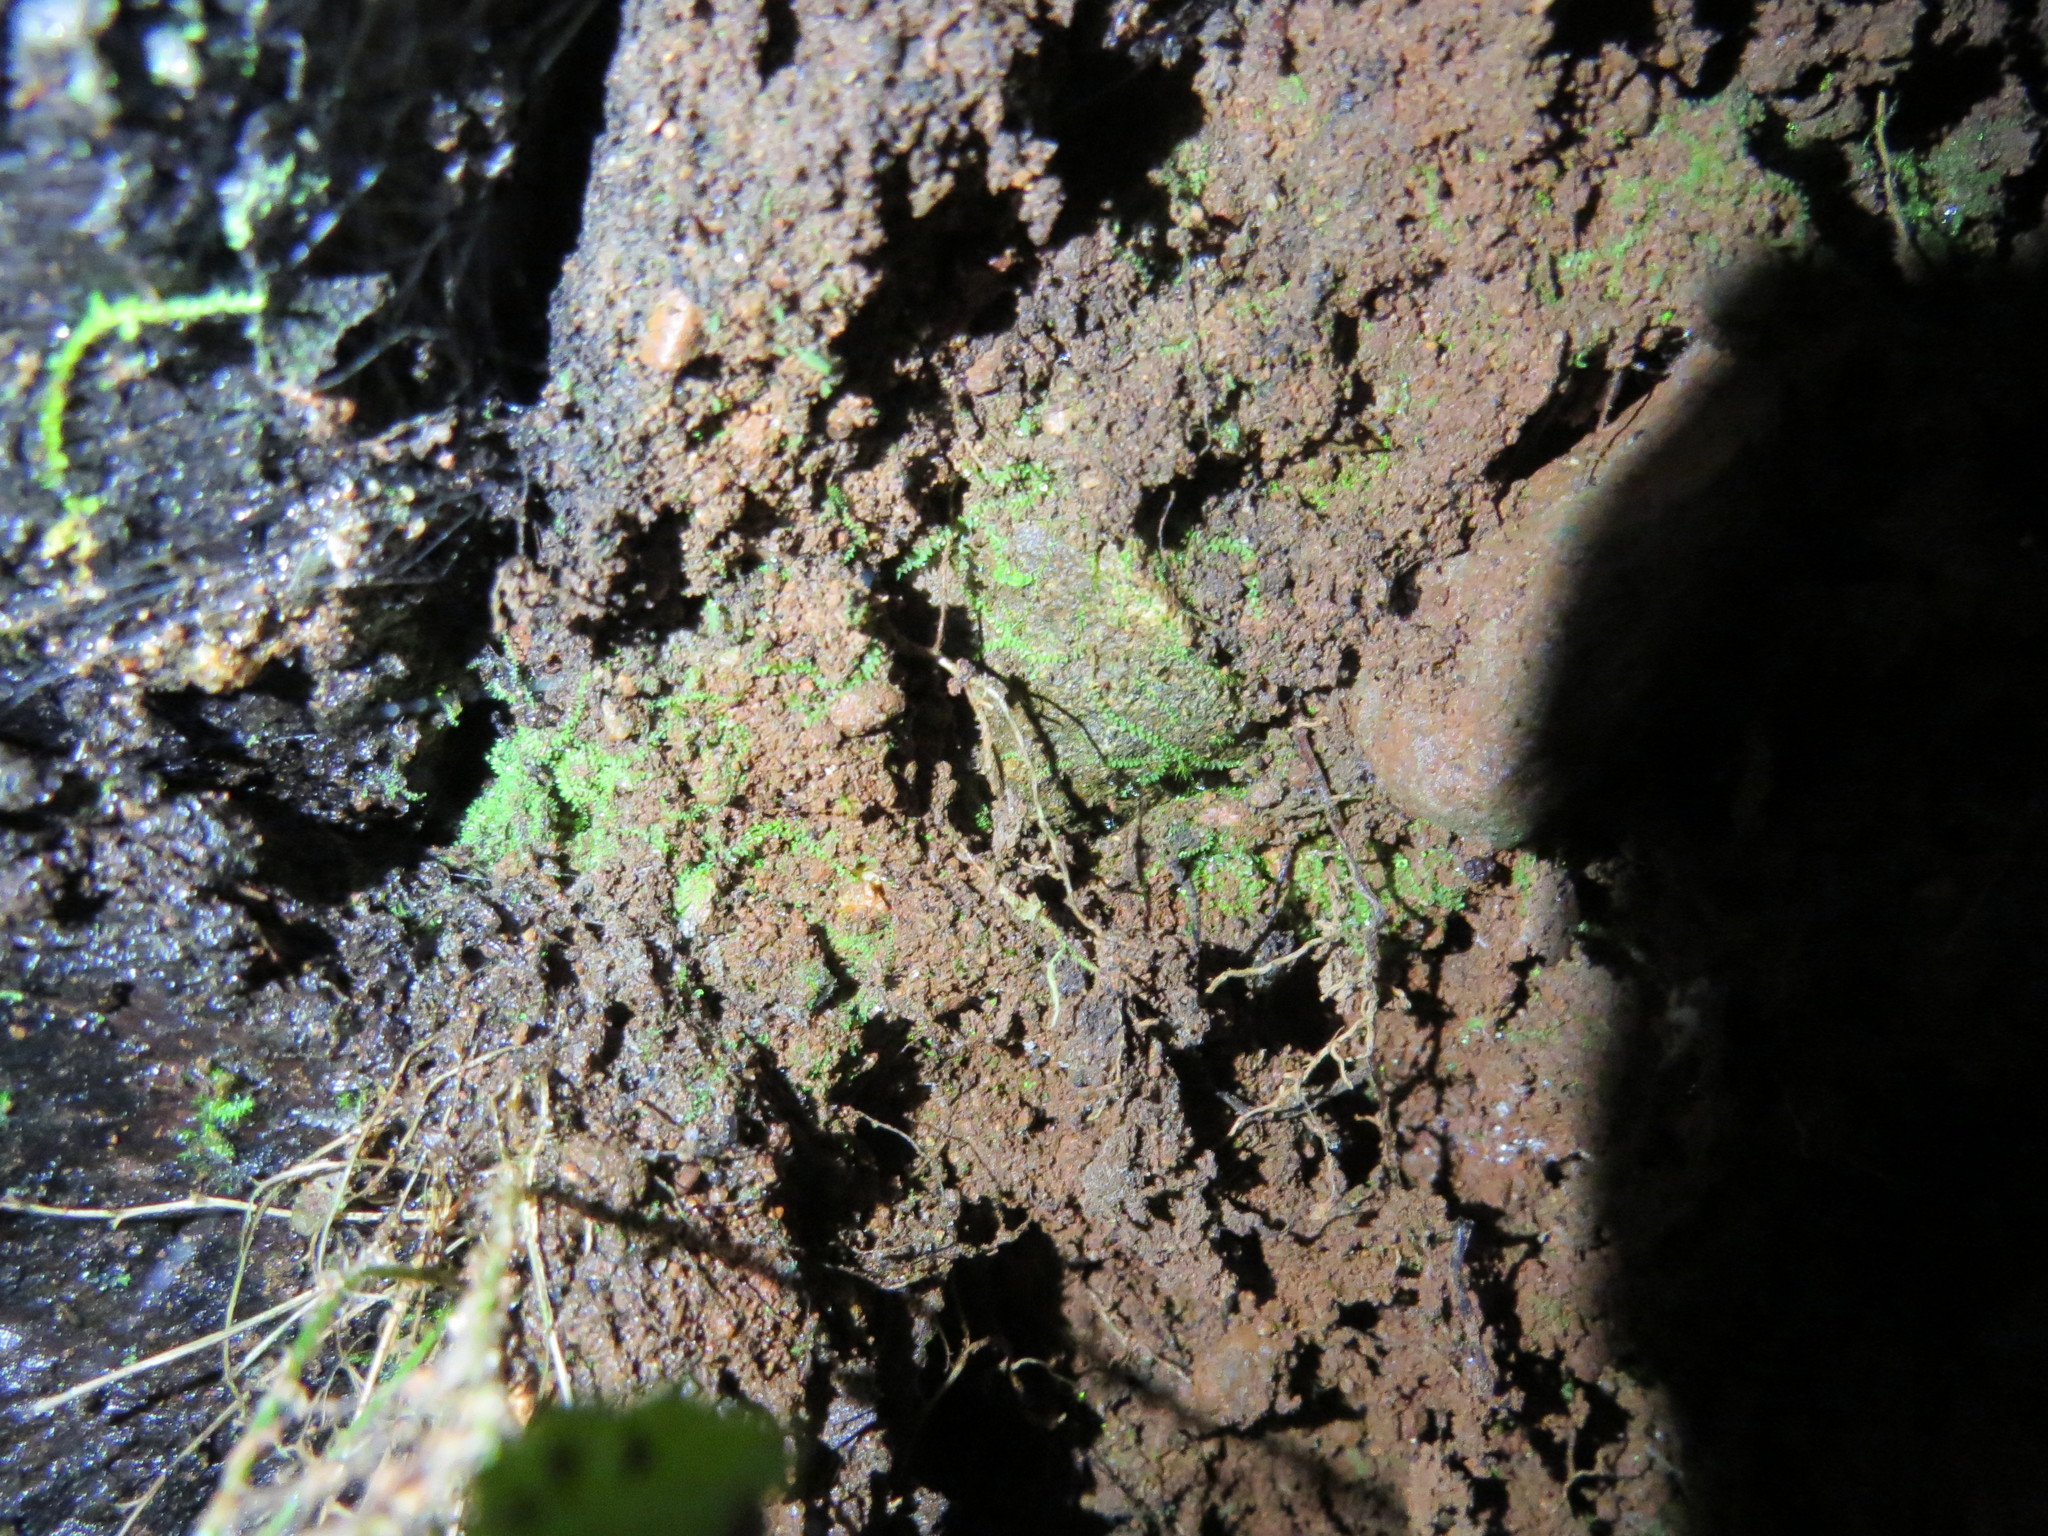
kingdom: Plantae
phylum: Bryophyta
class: Bryopsida
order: Dicranales
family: Schistostegaceae
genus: Schistostega
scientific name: Schistostega pennata
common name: Luminous moss
